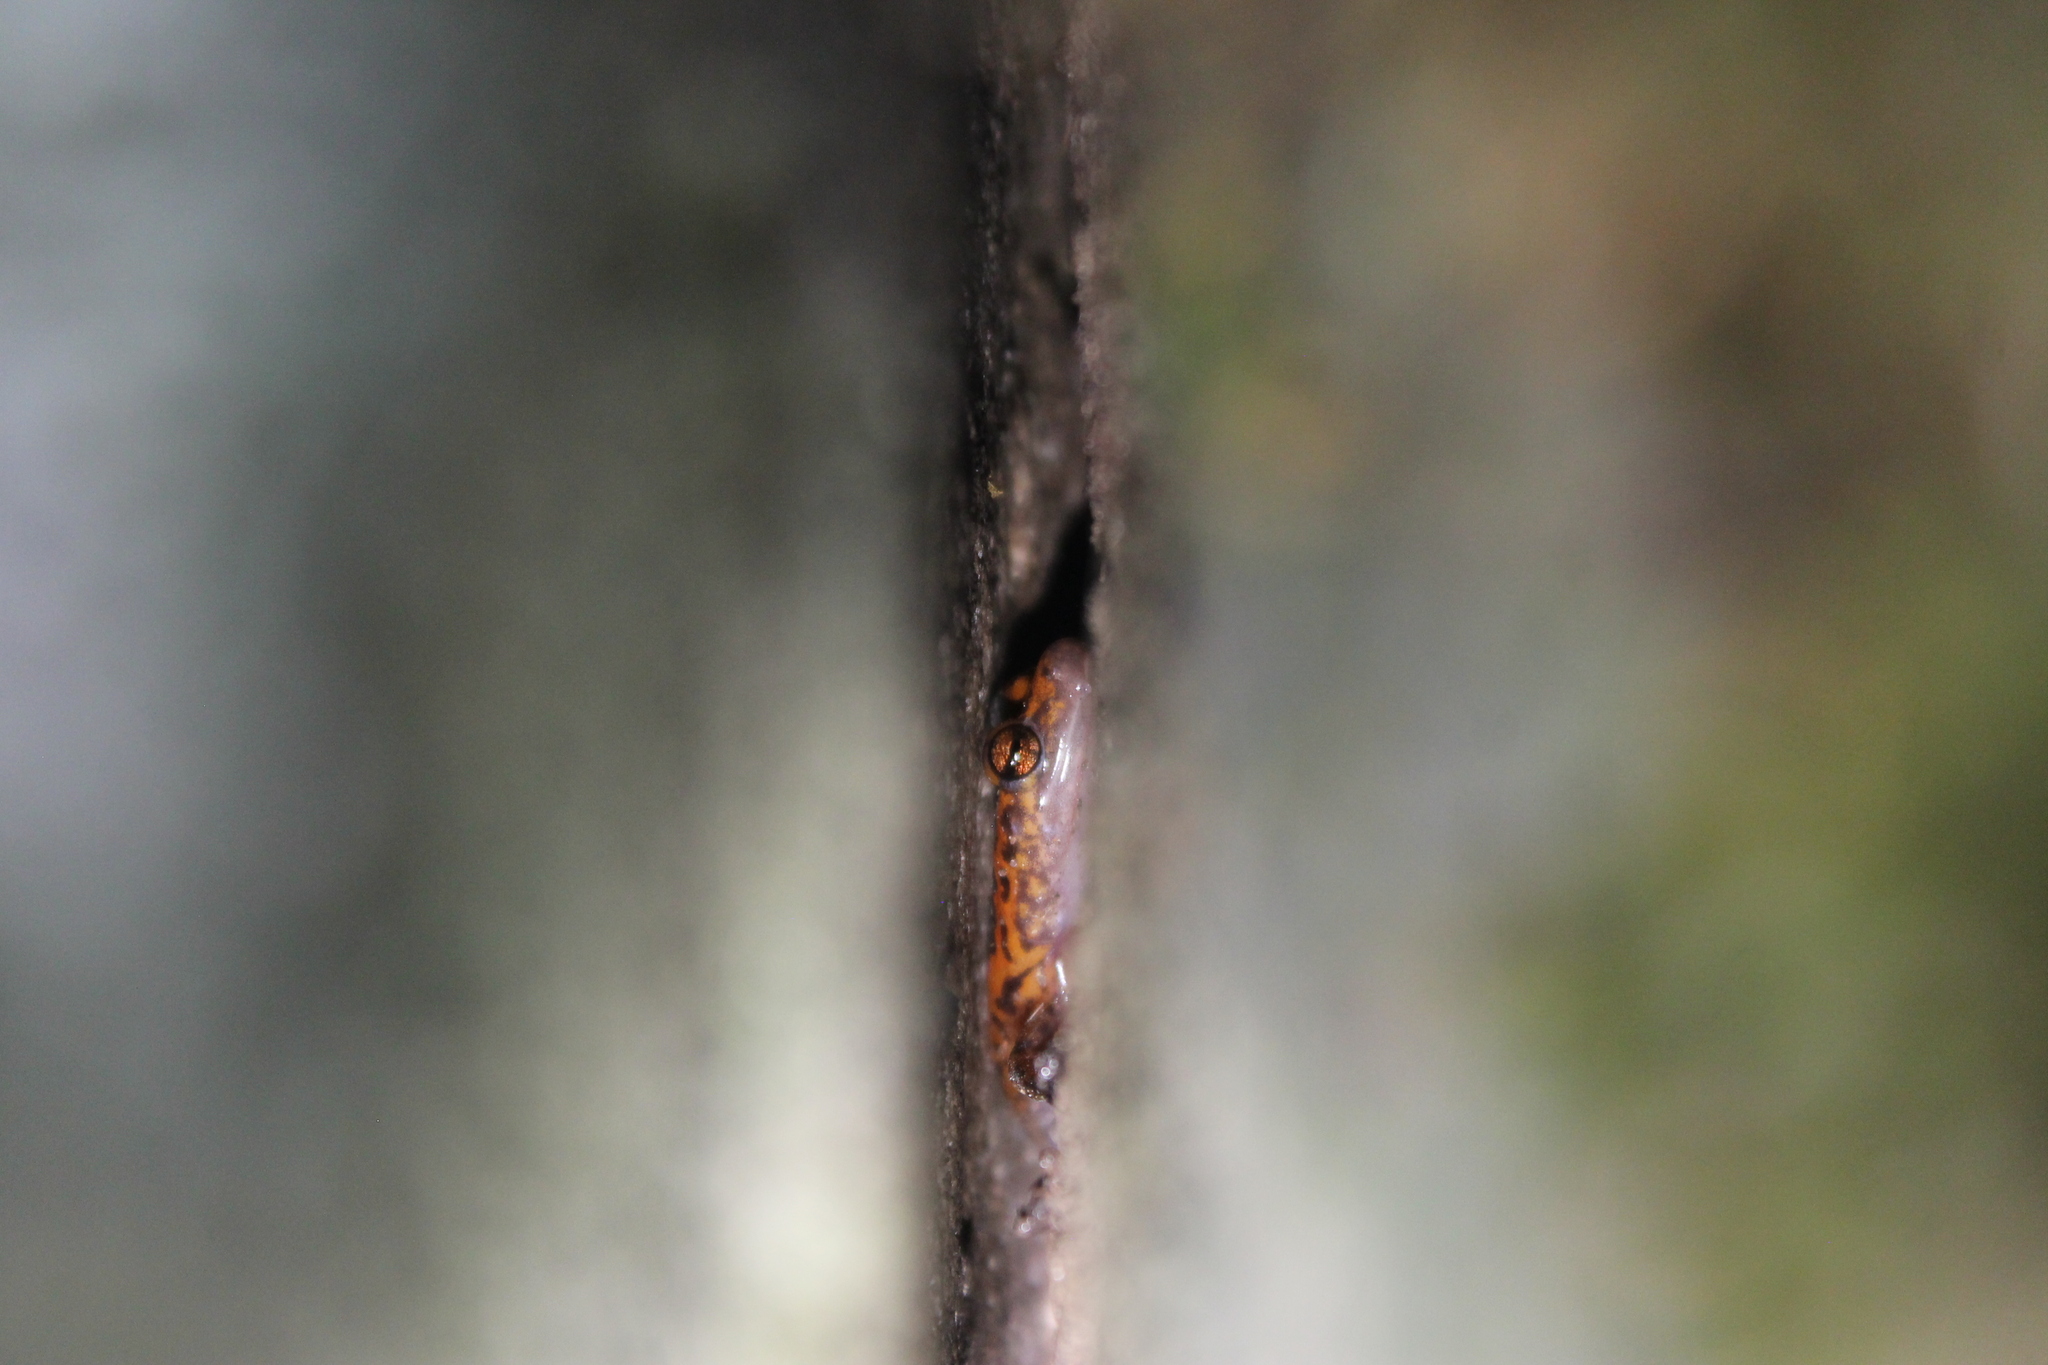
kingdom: Animalia
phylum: Chordata
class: Amphibia
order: Caudata
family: Plethodontidae
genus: Eurycea
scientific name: Eurycea lucifuga
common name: Cave salamander
